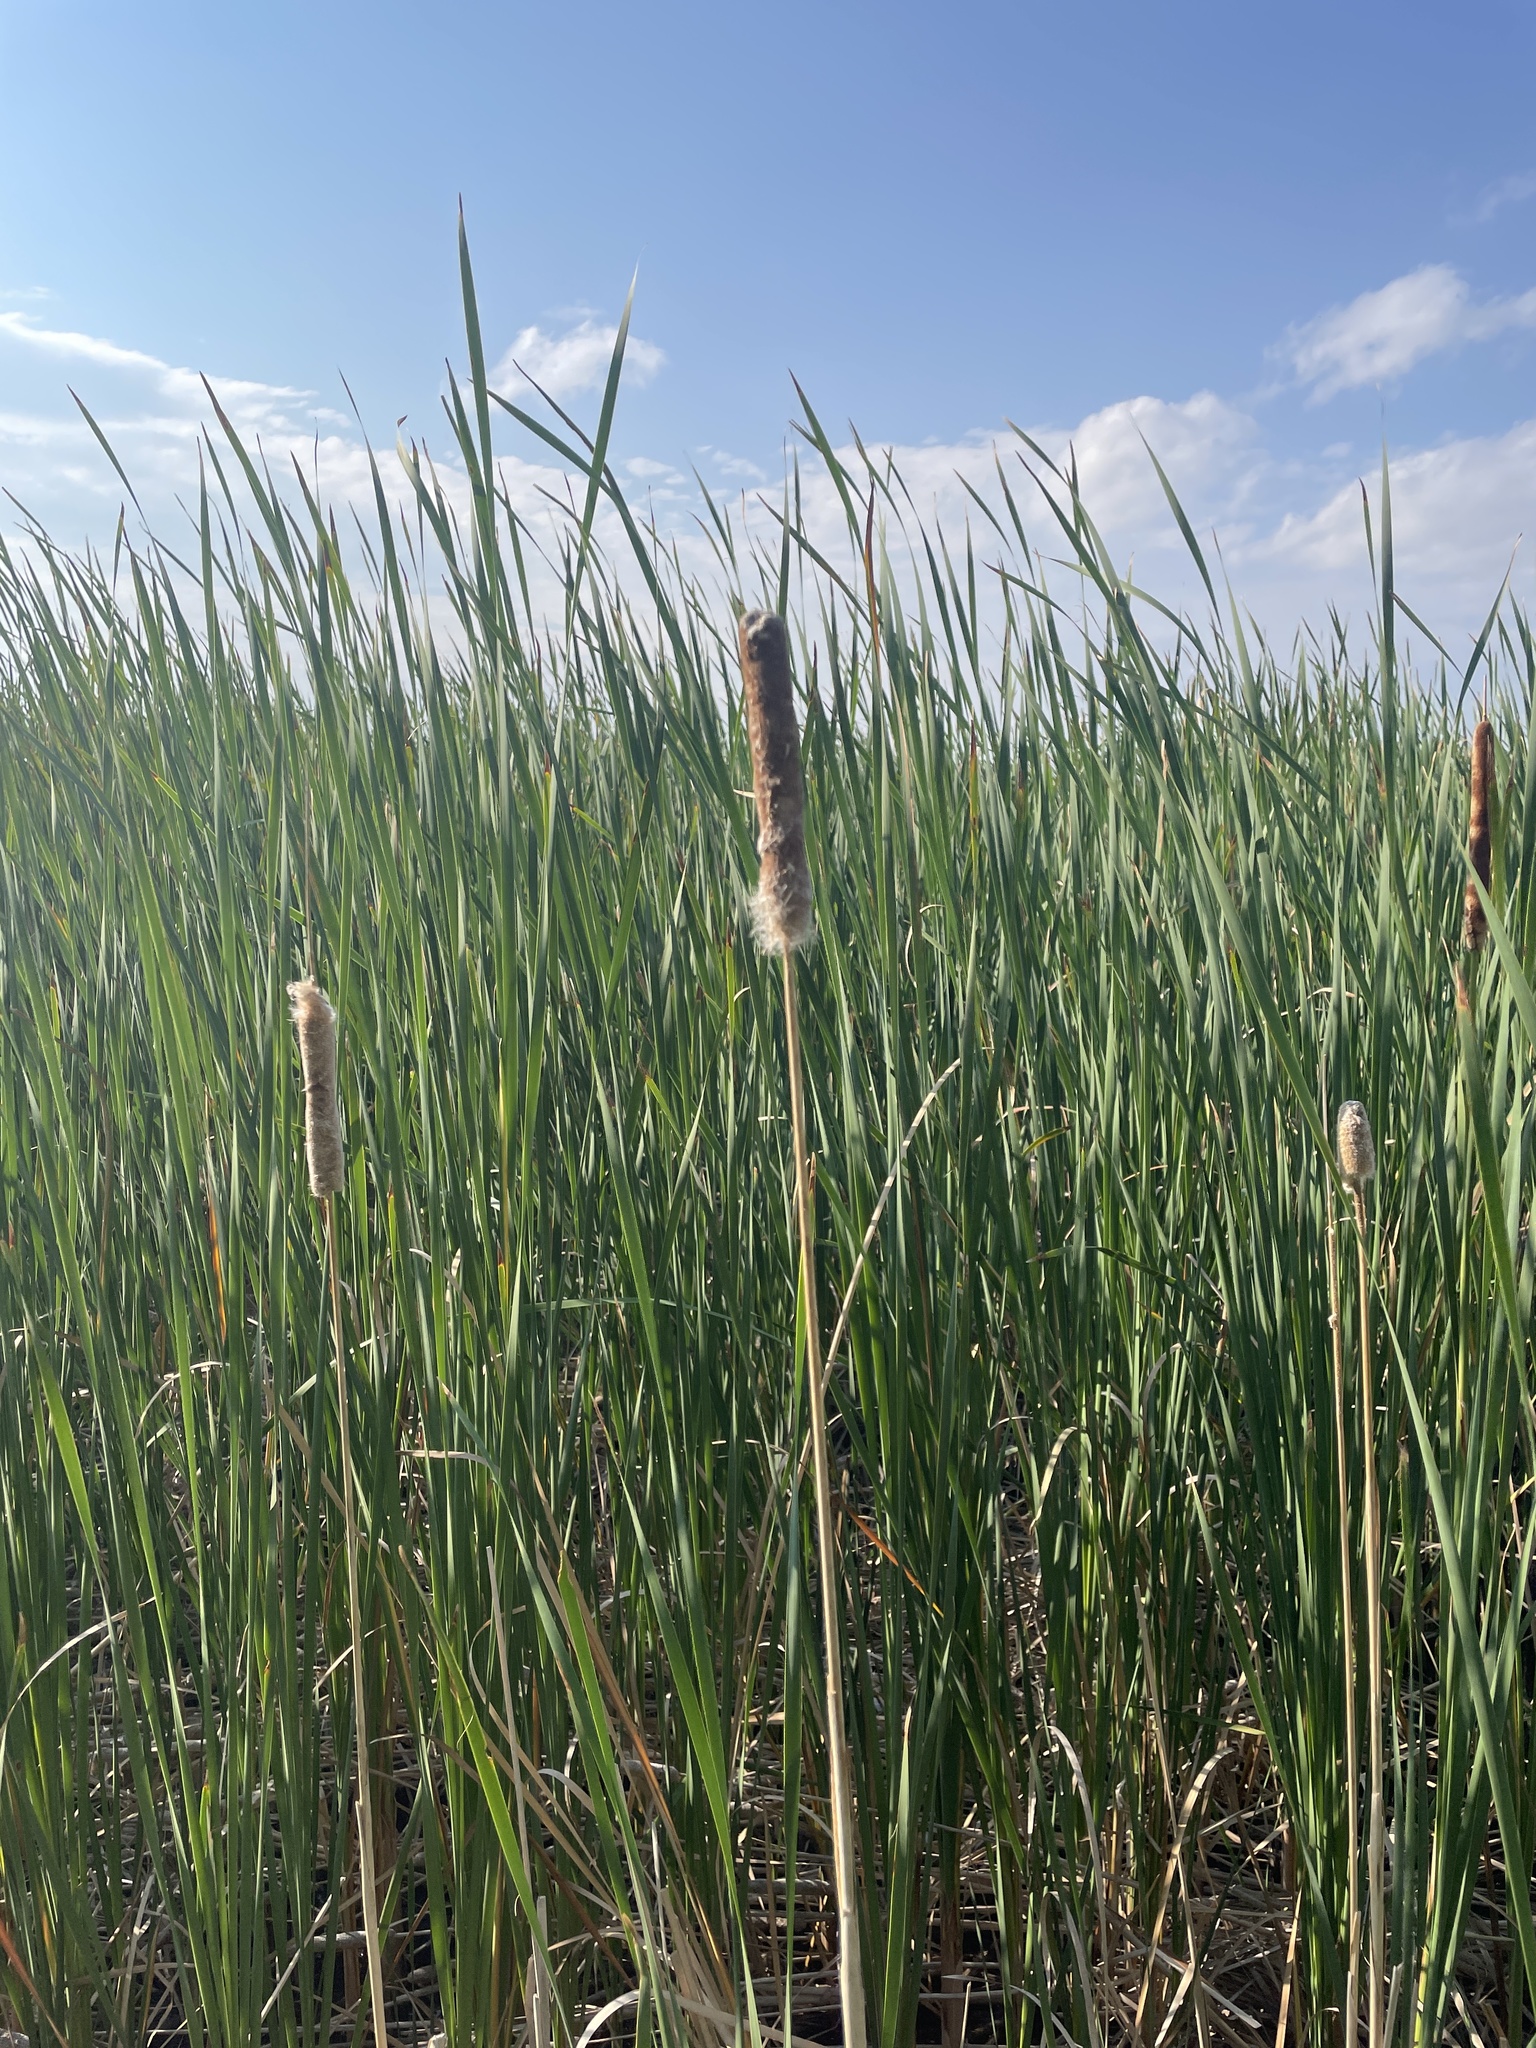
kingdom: Plantae
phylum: Tracheophyta
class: Liliopsida
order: Poales
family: Typhaceae
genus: Typha
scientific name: Typha angustifolia
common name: Lesser bulrush
